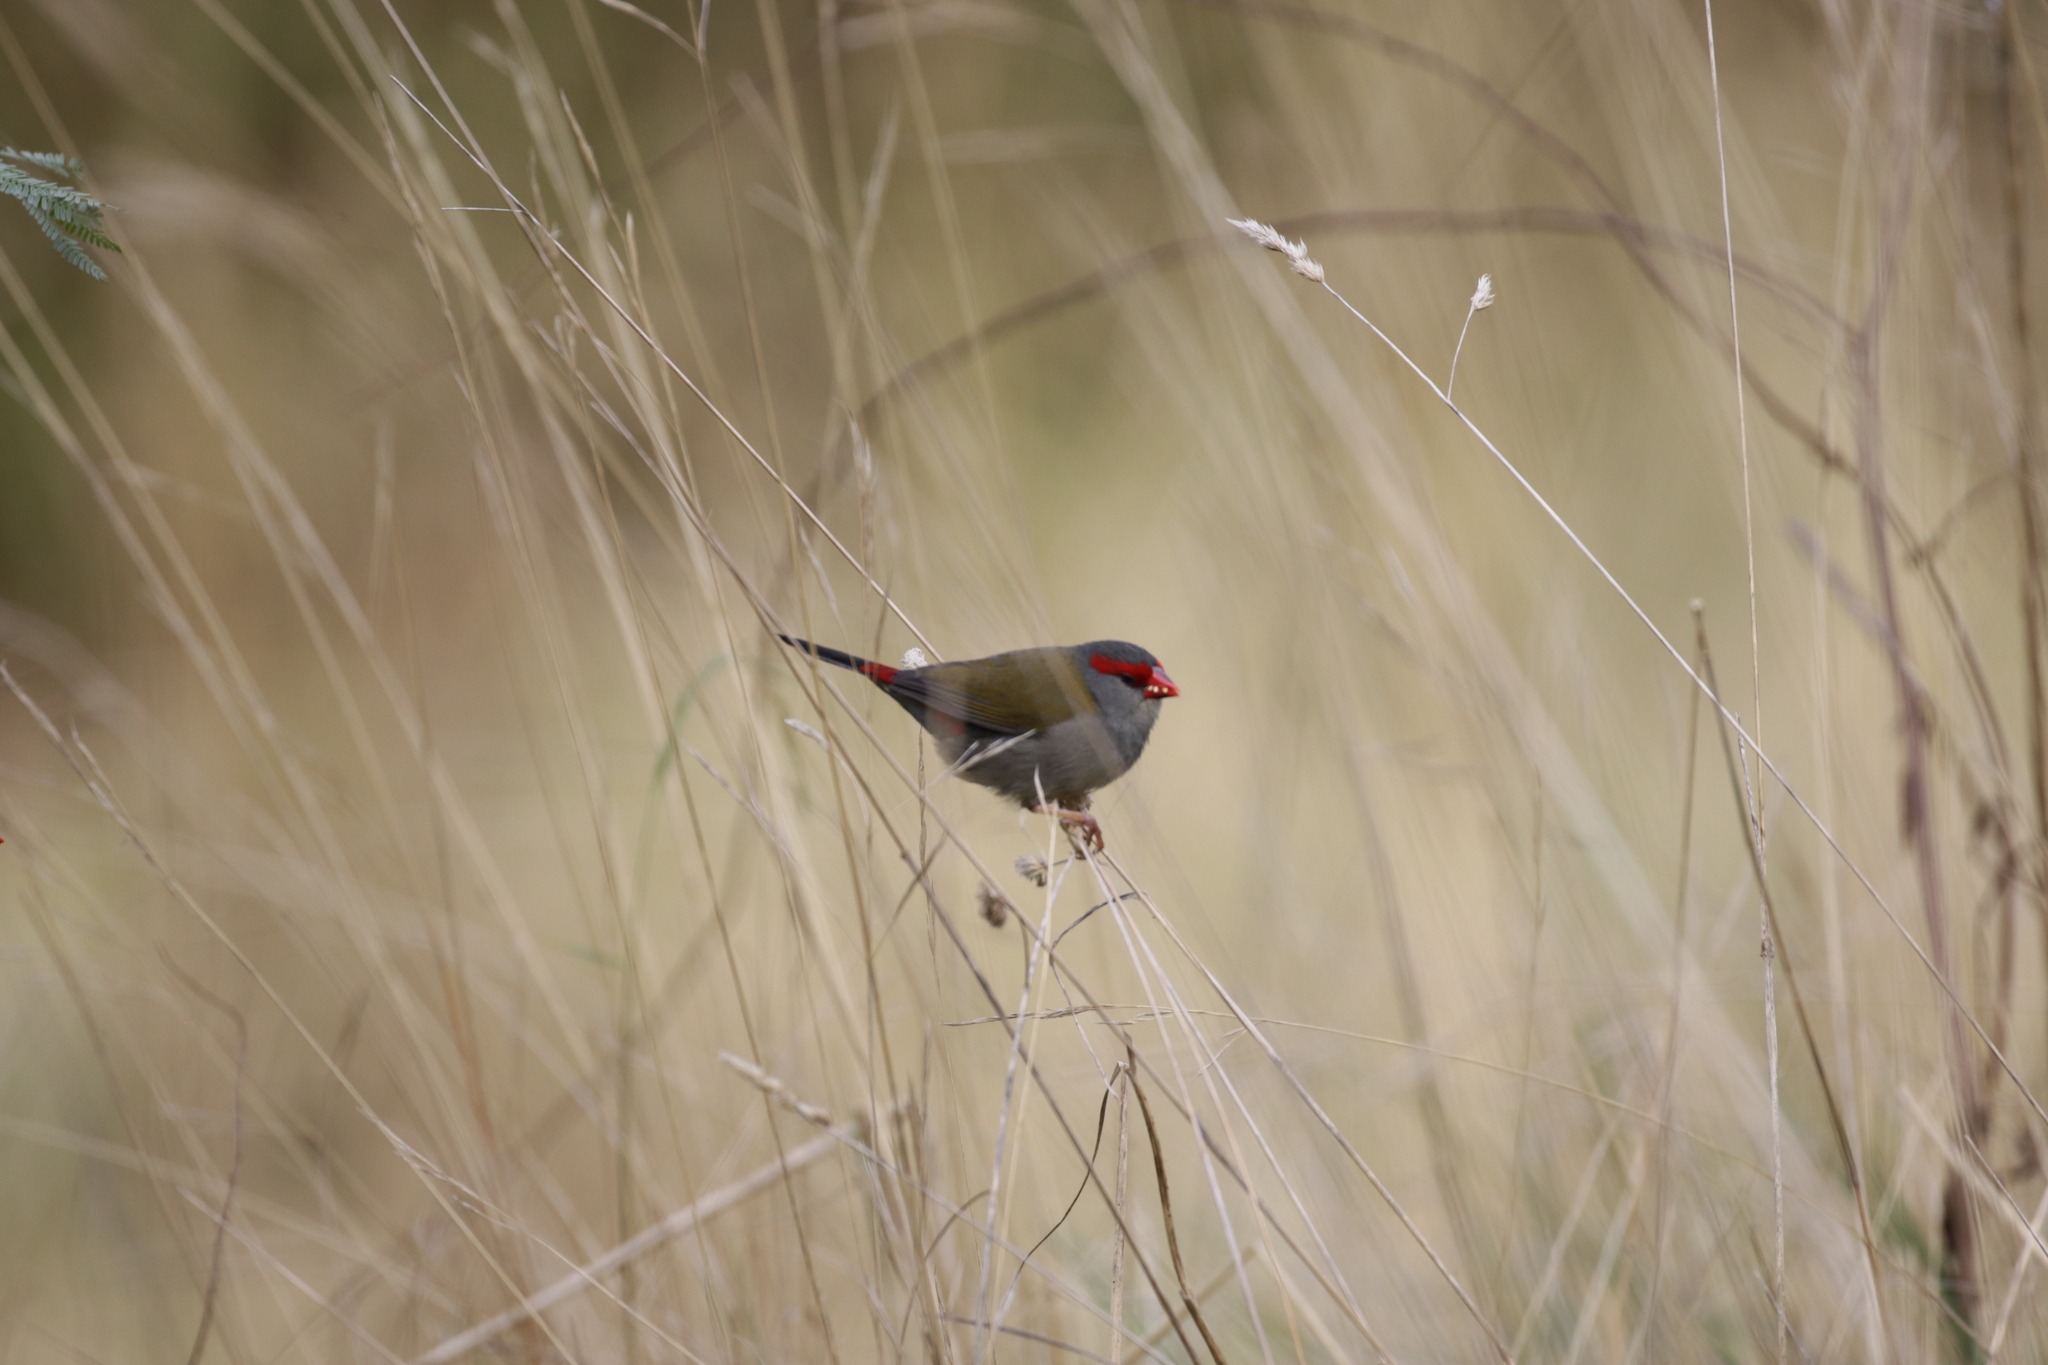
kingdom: Animalia
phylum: Chordata
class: Aves
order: Passeriformes
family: Estrildidae
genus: Neochmia
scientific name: Neochmia temporalis
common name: Red-browed finch
